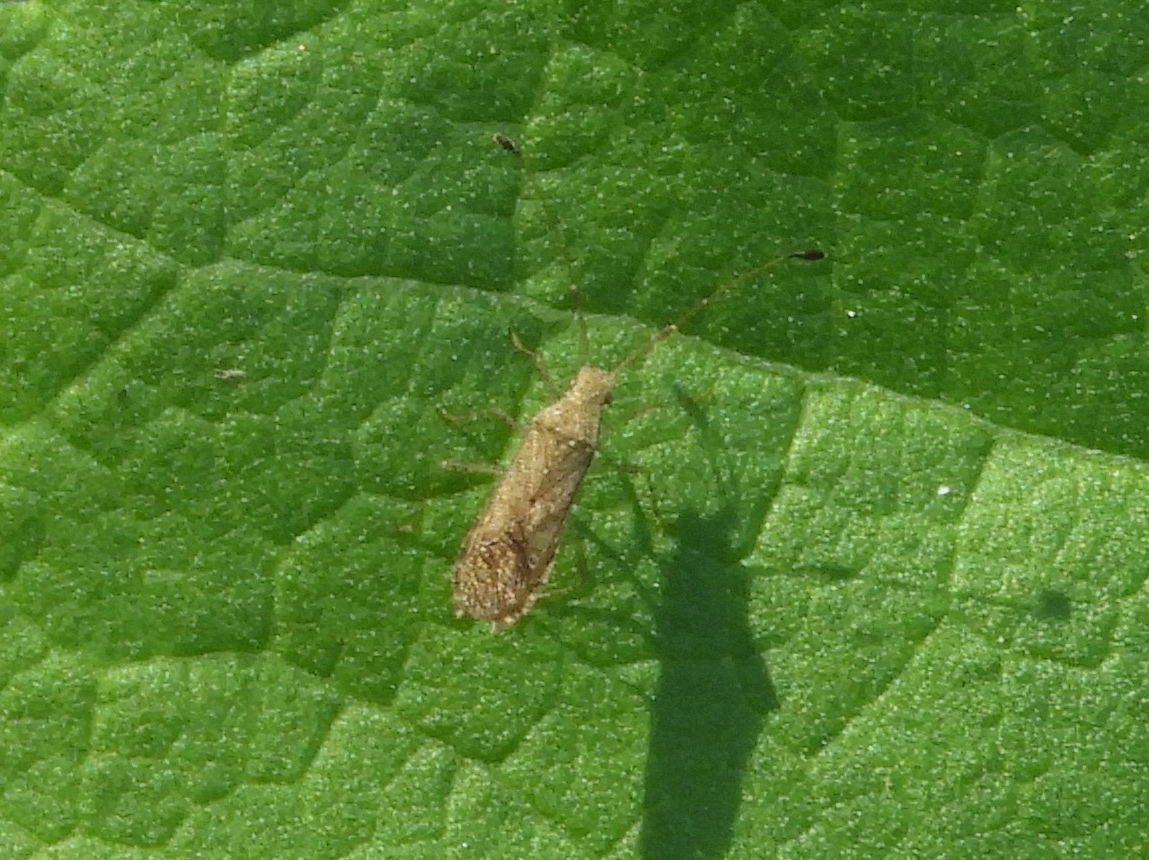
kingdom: Animalia
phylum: Arthropoda
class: Insecta
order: Hemiptera
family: Coreidae
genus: Madura
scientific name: Madura
